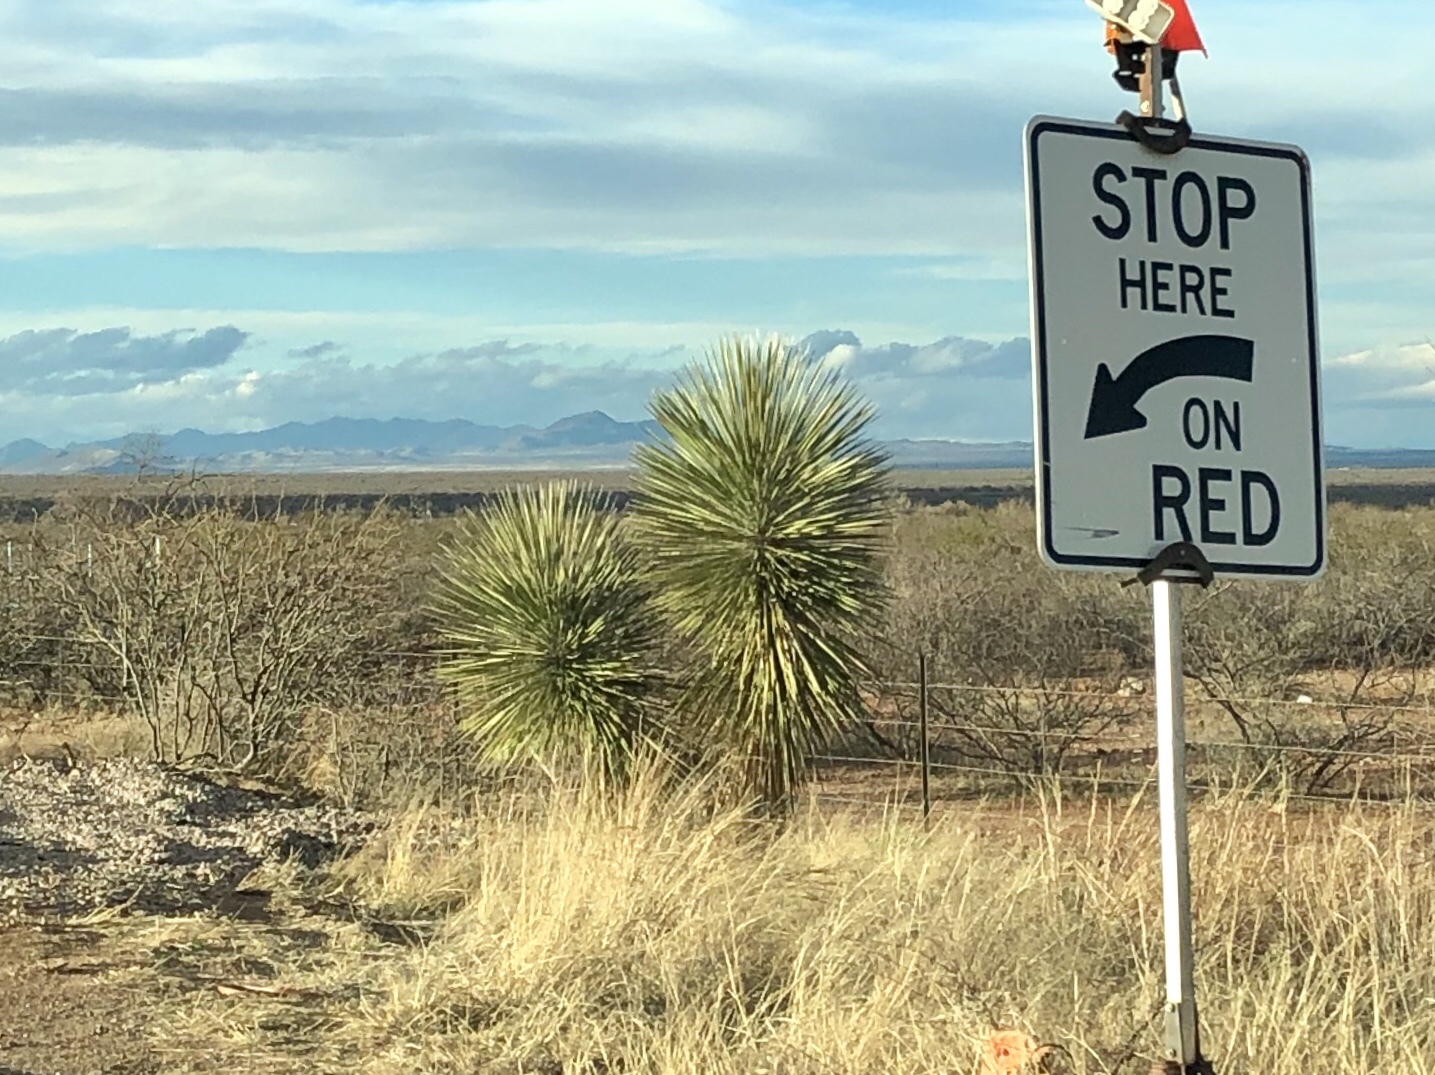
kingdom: Plantae
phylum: Tracheophyta
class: Liliopsida
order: Asparagales
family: Asparagaceae
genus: Yucca
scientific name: Yucca elata
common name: Palmella
